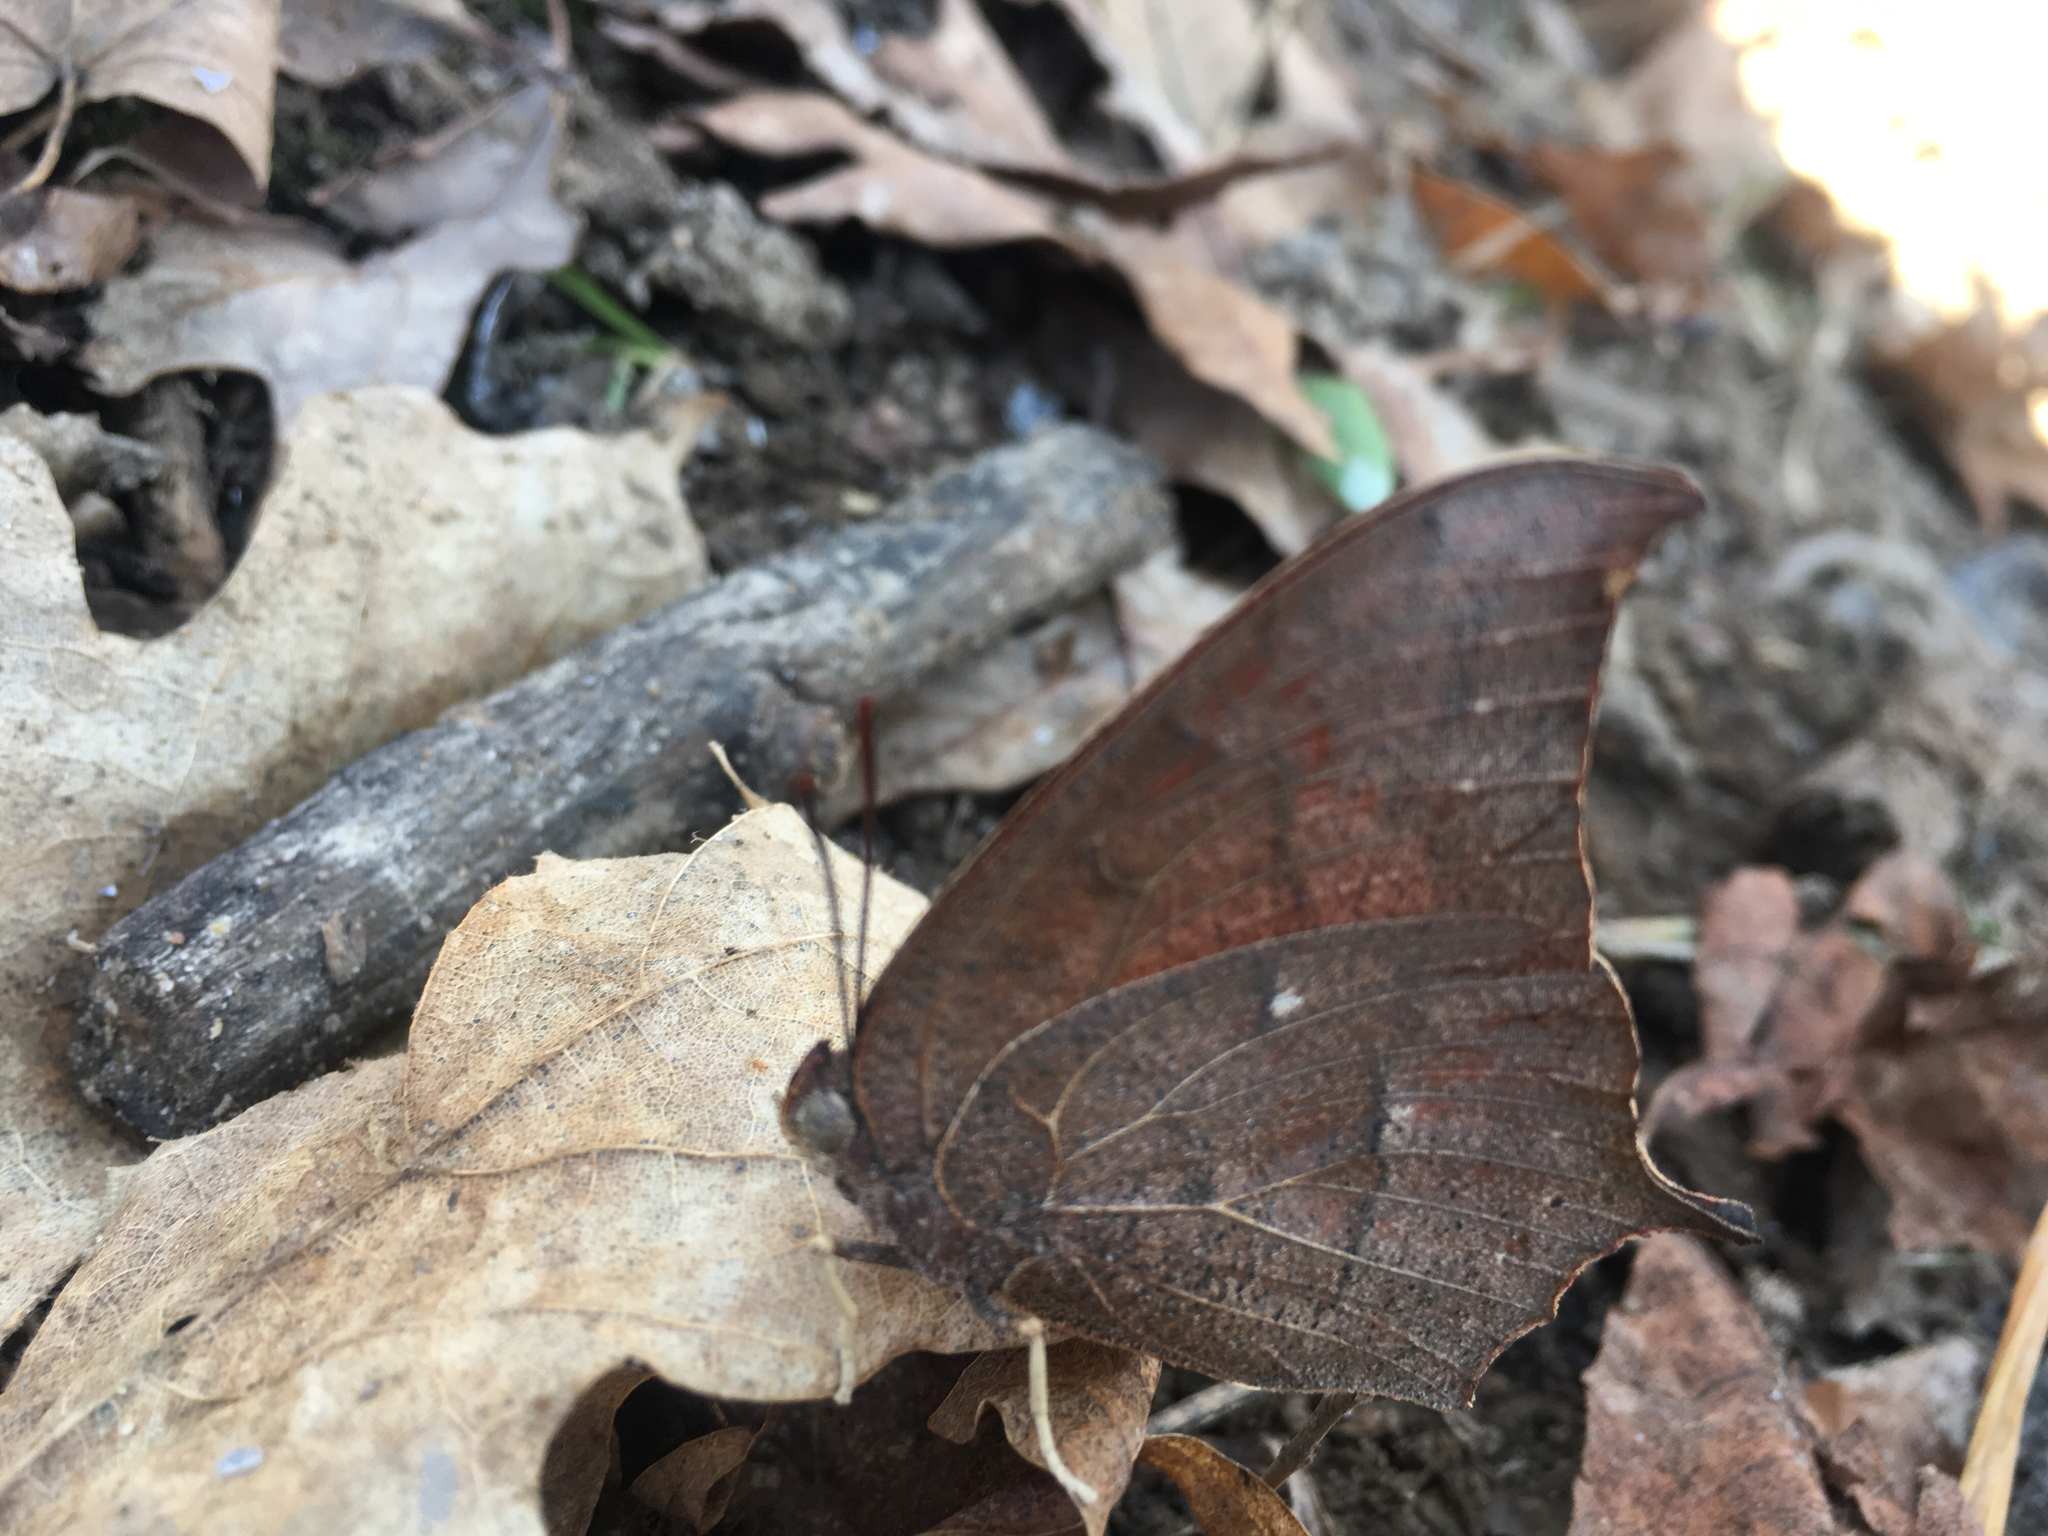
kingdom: Animalia
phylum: Arthropoda
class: Insecta
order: Lepidoptera
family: Nymphalidae
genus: Anaea
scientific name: Anaea andria
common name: Goatweed leafwing
